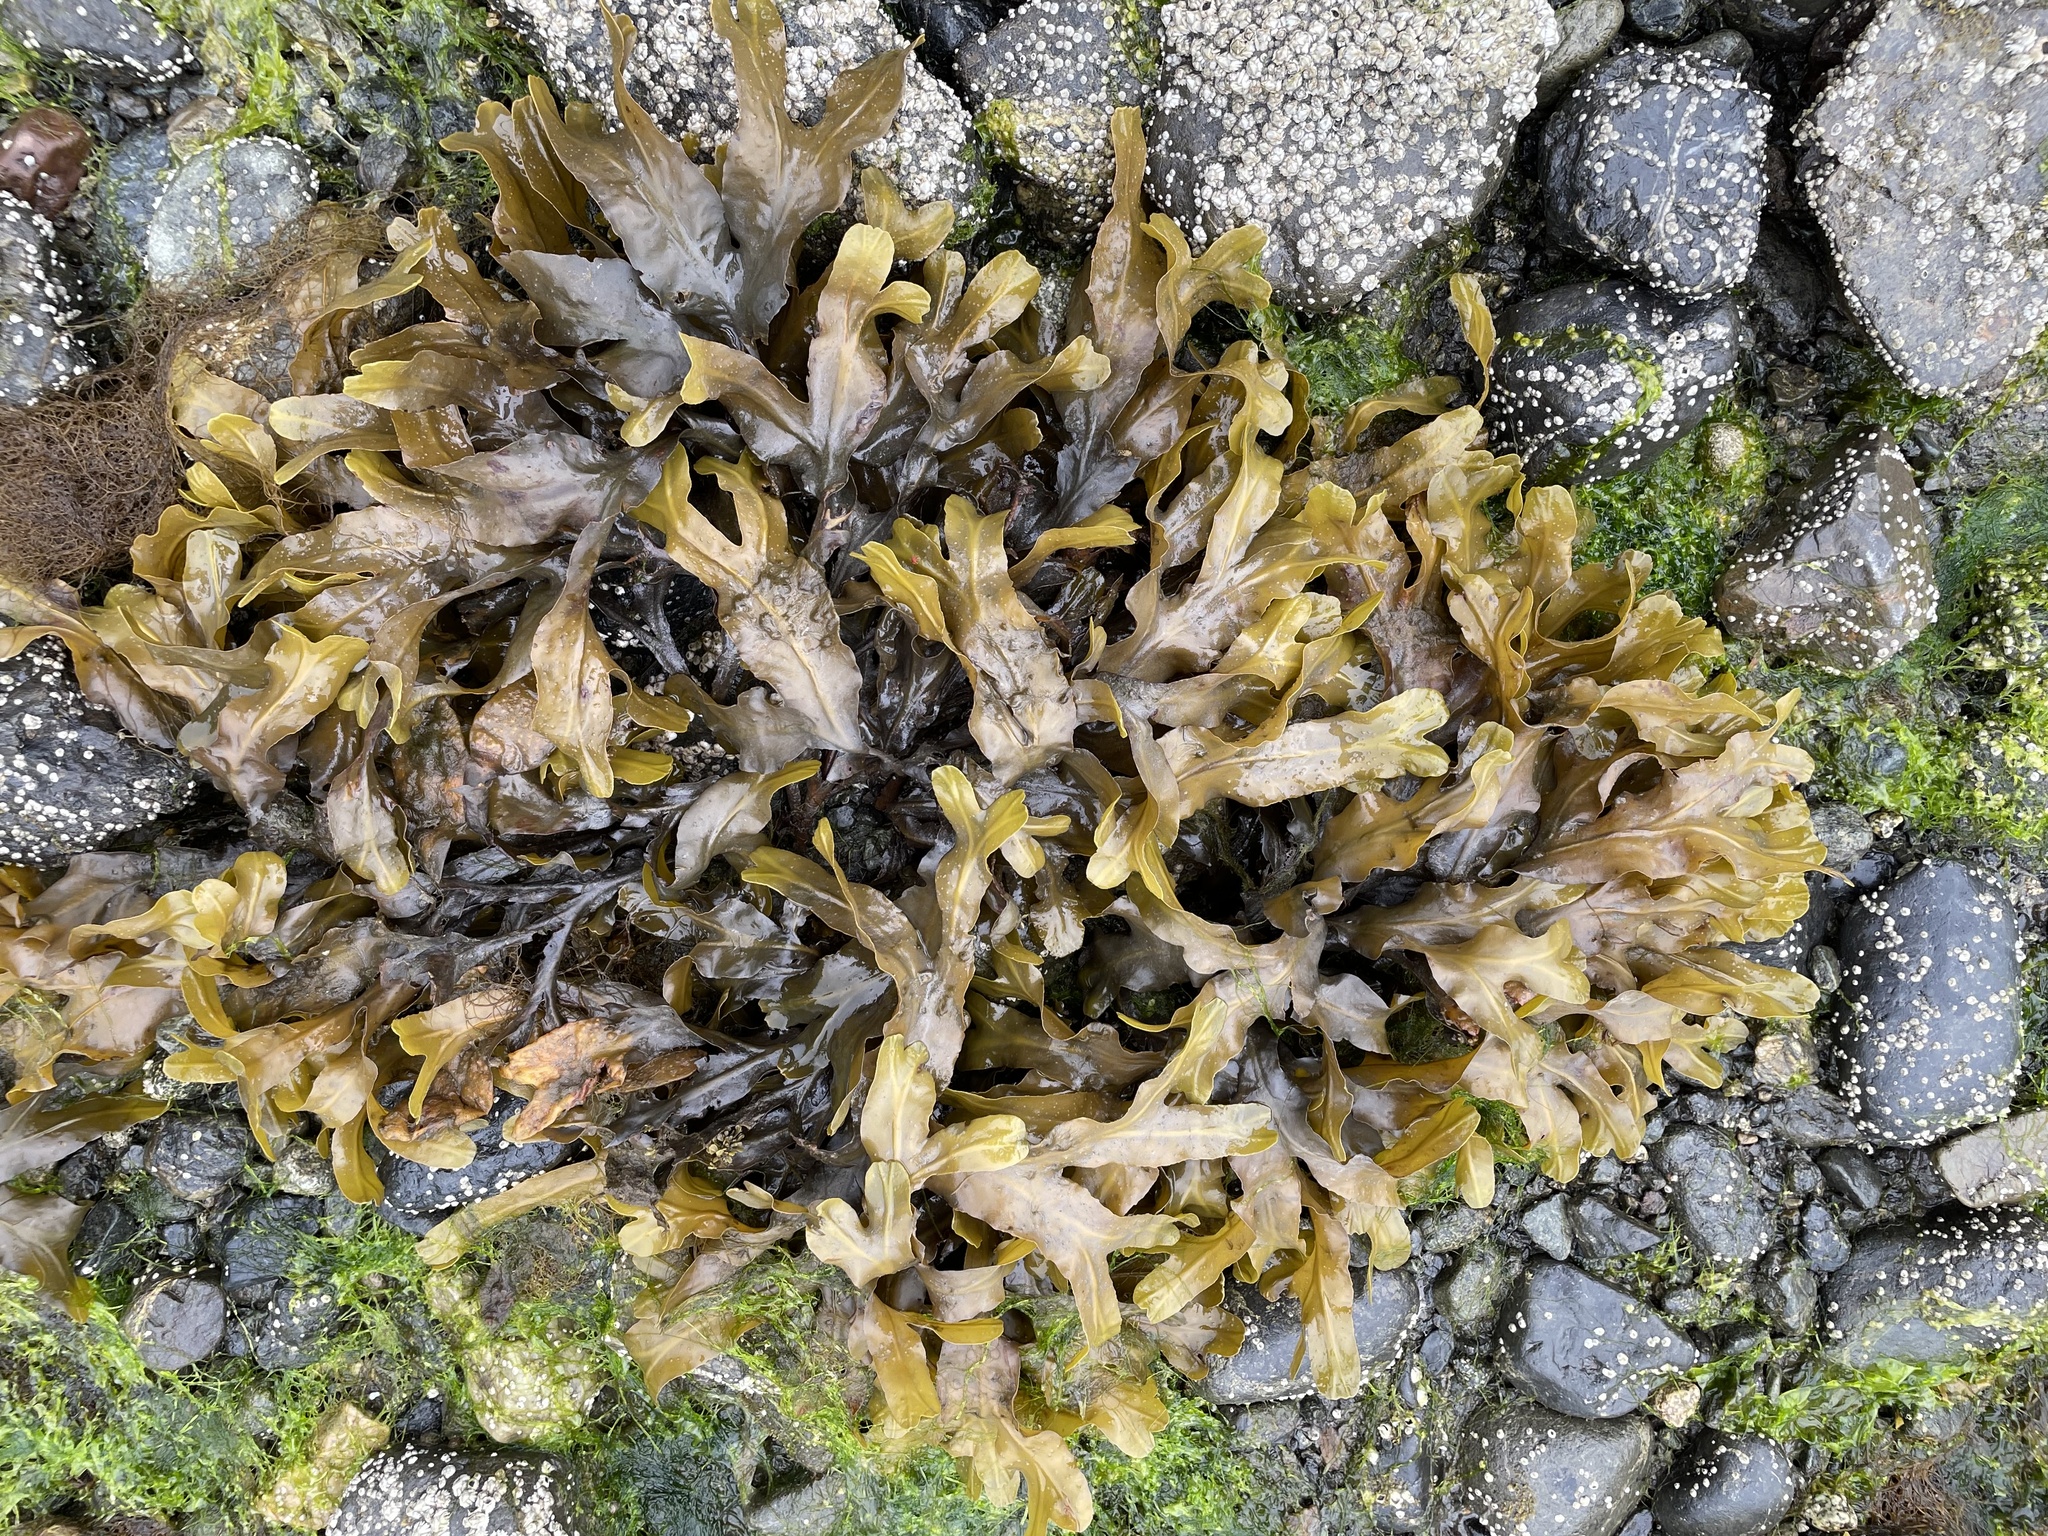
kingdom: Chromista
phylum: Ochrophyta
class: Phaeophyceae
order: Fucales
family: Fucaceae
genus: Fucus
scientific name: Fucus distichus
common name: Rockweed
